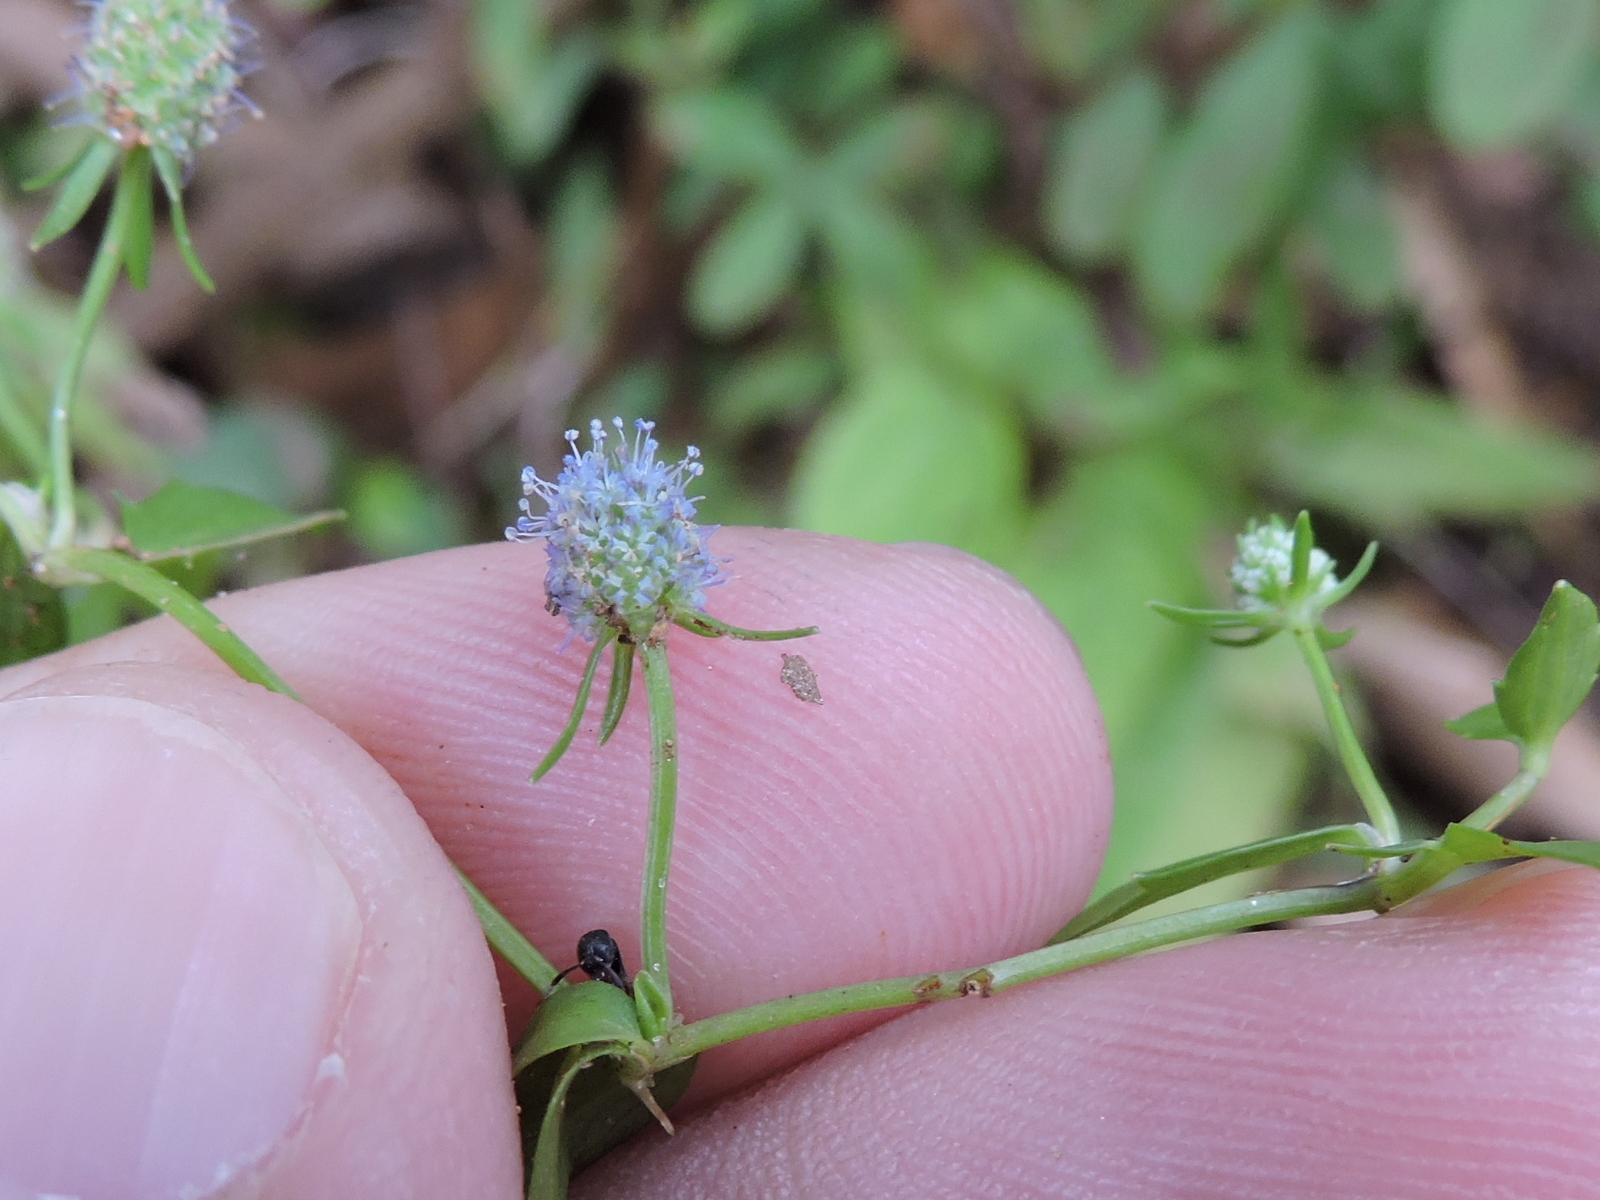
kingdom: Plantae
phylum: Tracheophyta
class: Magnoliopsida
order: Apiales
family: Apiaceae
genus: Eryngium
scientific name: Eryngium prostratum
